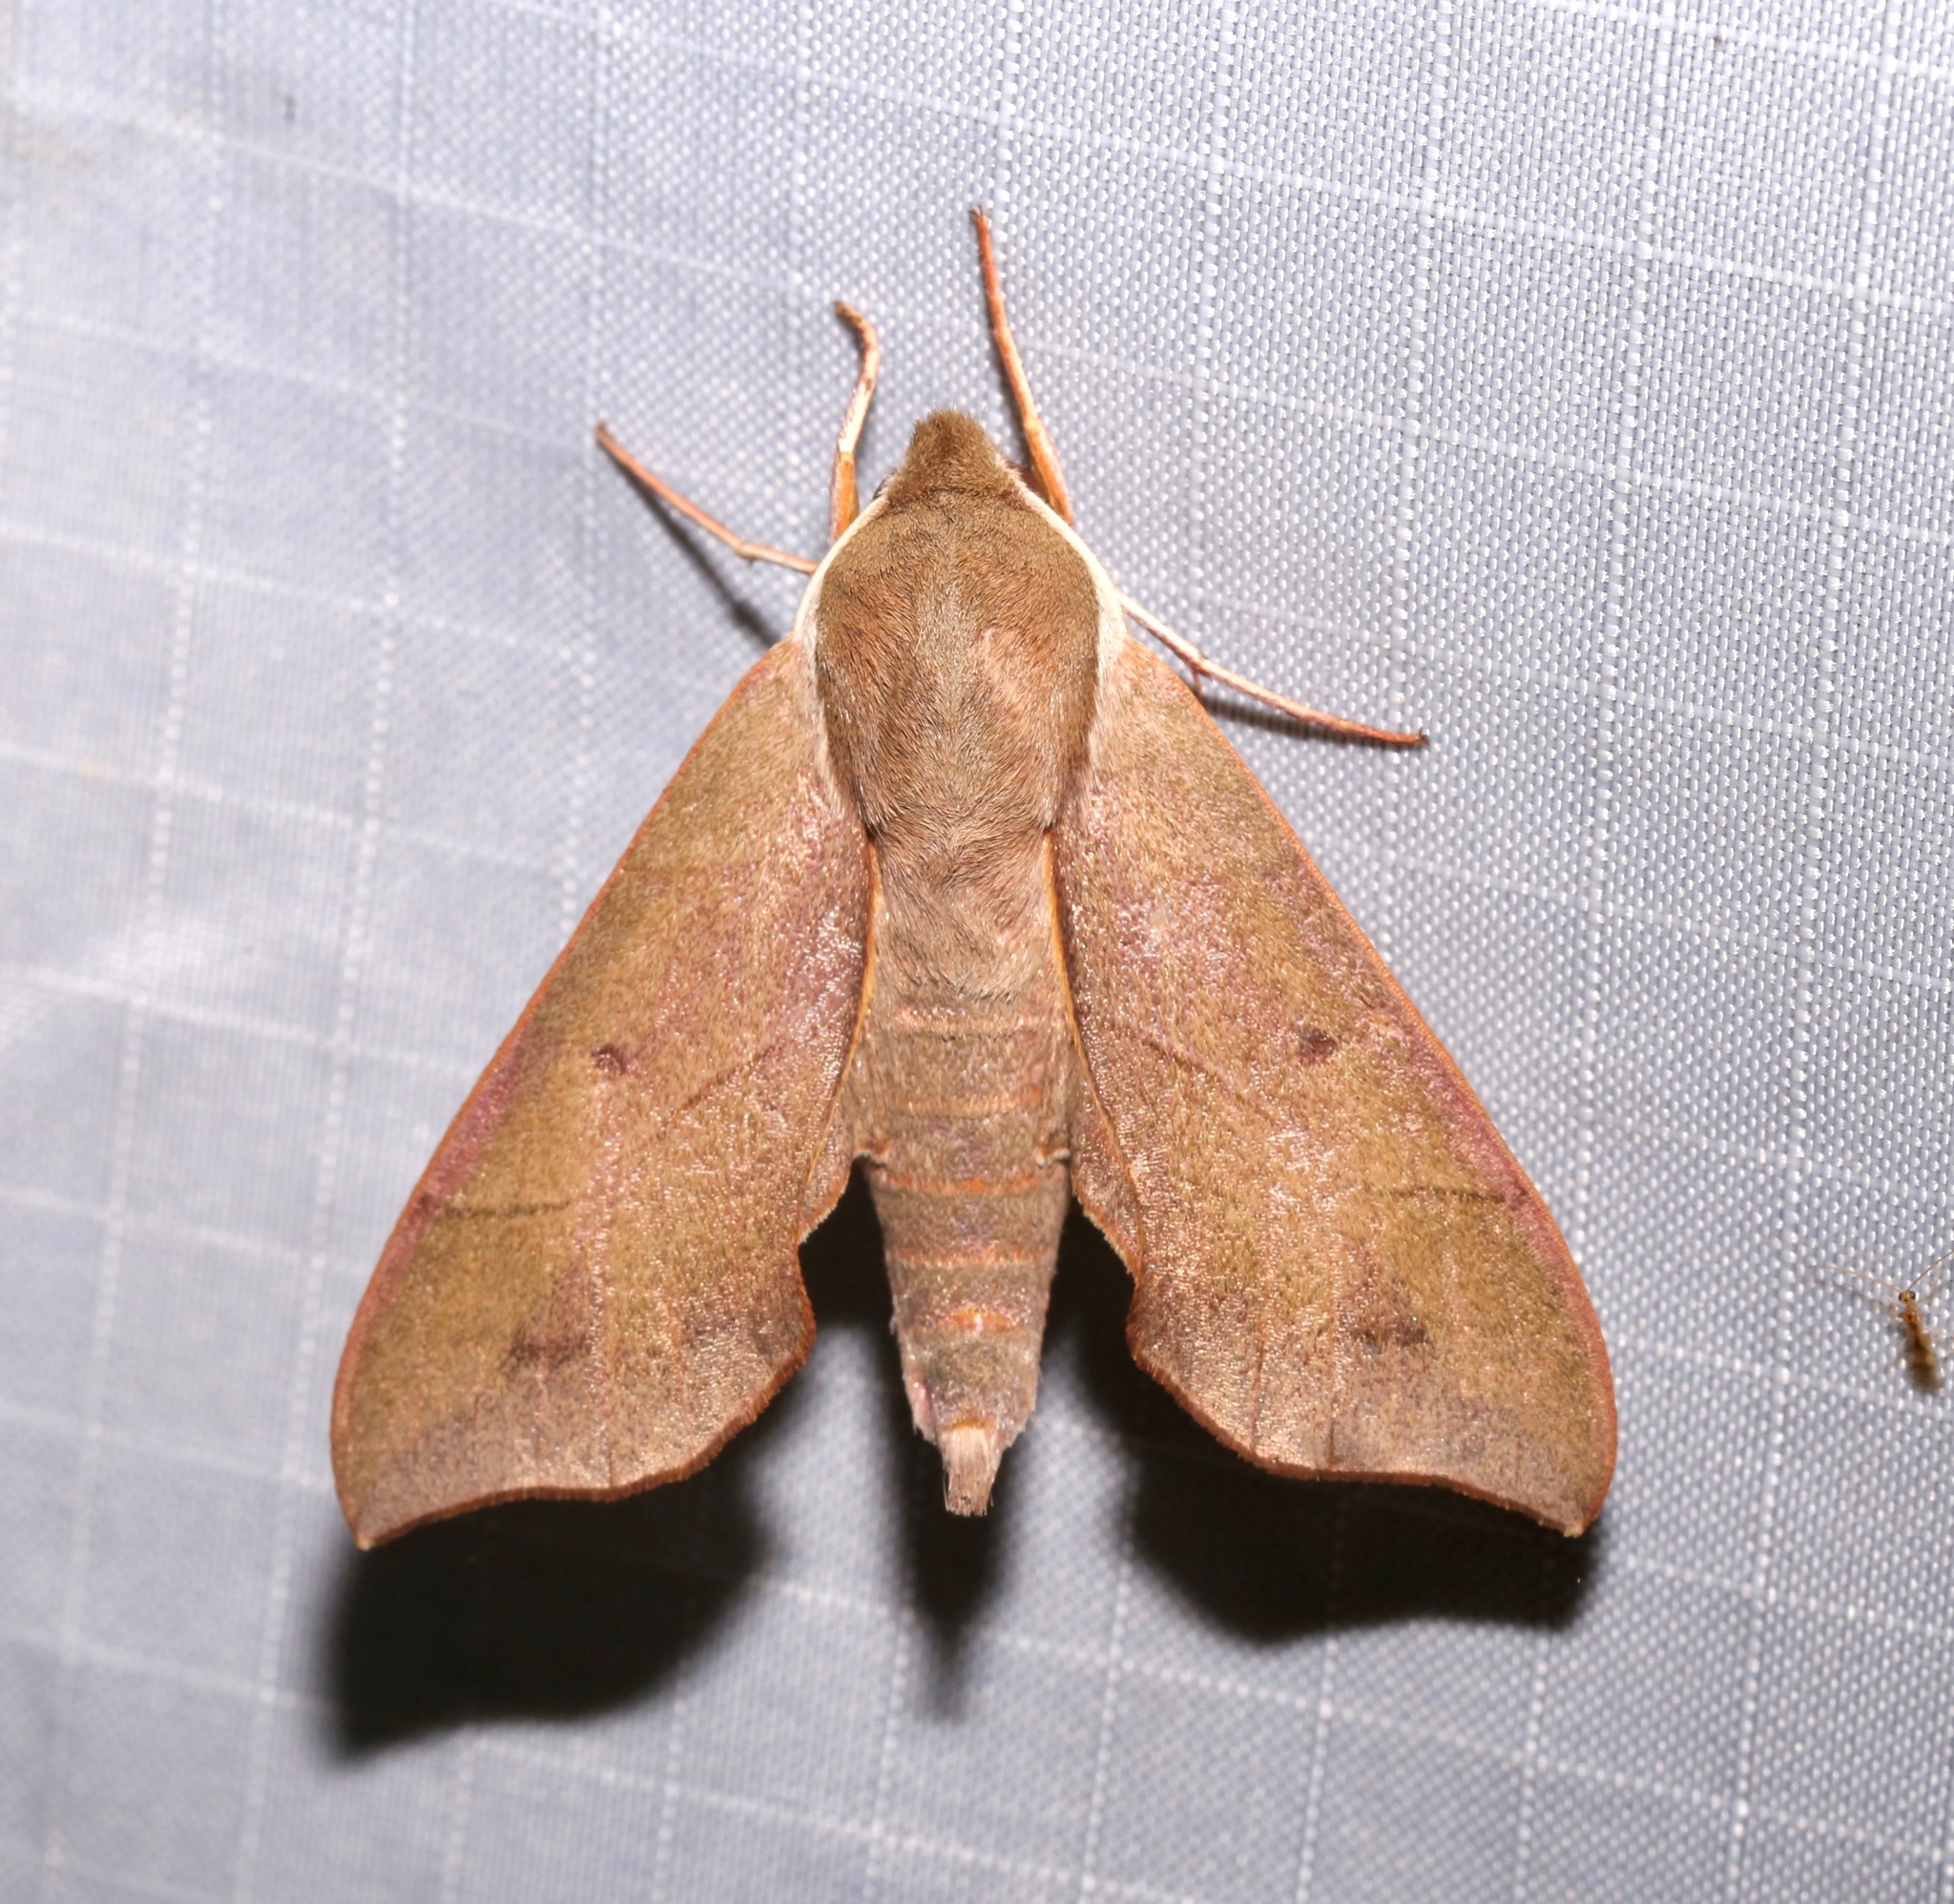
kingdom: Animalia
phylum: Arthropoda
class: Insecta
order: Lepidoptera
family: Sphingidae
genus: Darapsa
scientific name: Darapsa myron
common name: Hog sphinx
